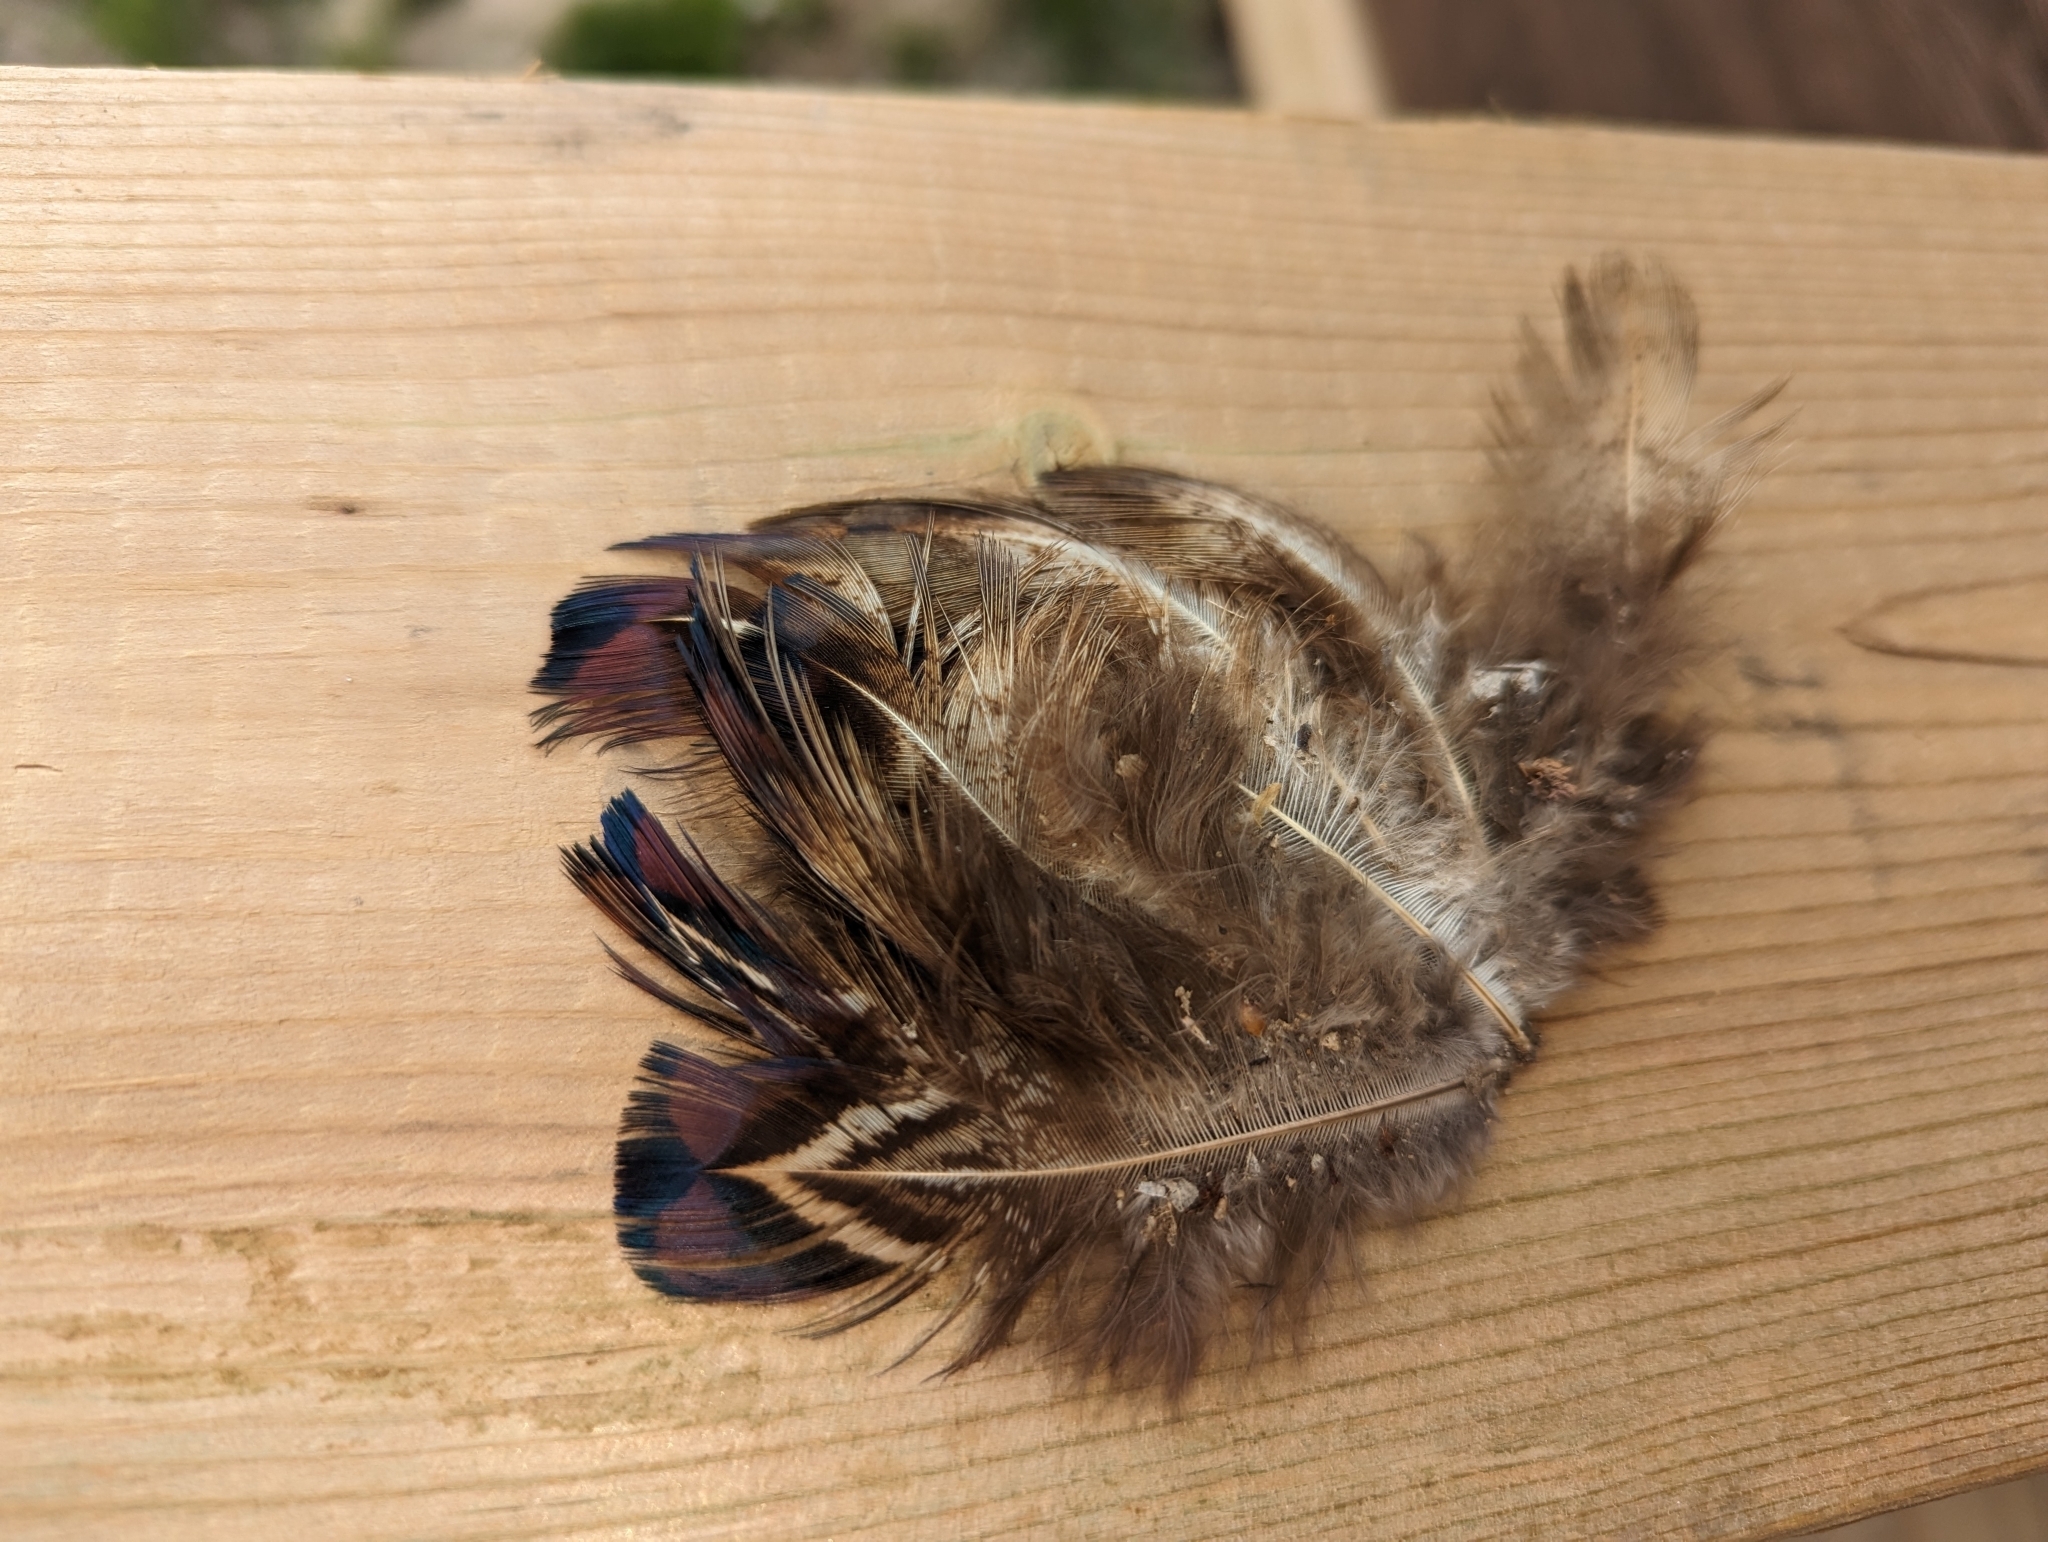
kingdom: Animalia
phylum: Chordata
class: Aves
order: Galliformes
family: Phasianidae
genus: Phasianus
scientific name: Phasianus colchicus
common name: Common pheasant
